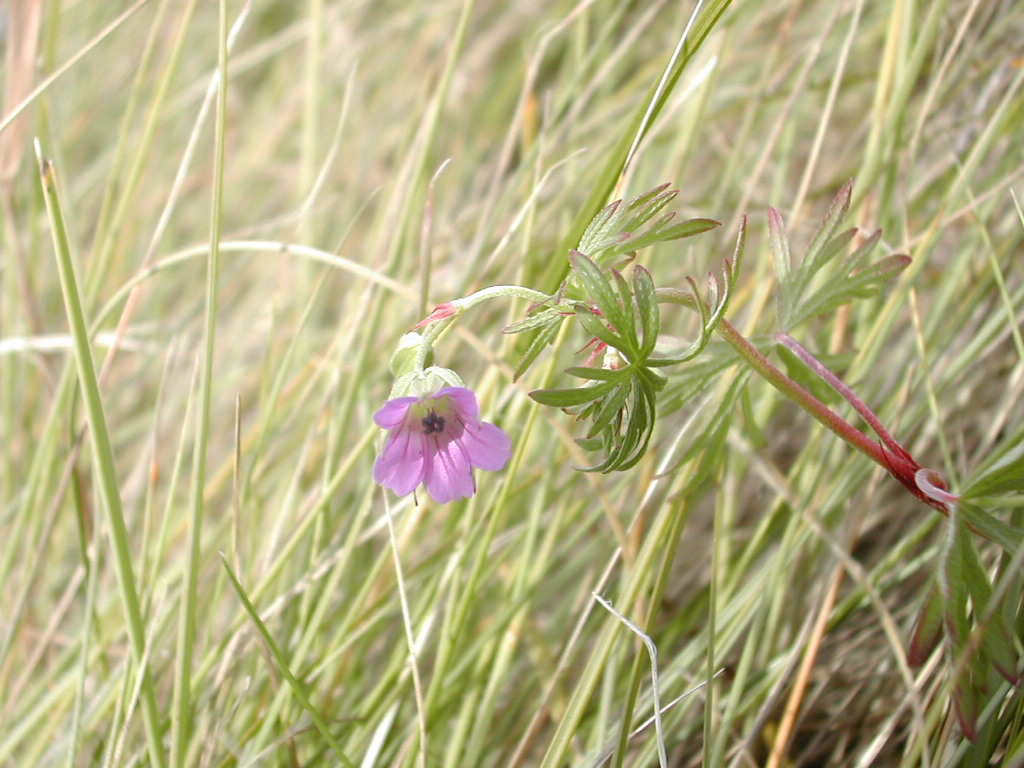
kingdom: Plantae
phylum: Tracheophyta
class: Magnoliopsida
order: Geraniales
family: Geraniaceae
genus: Geranium
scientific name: Geranium columbinum
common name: Long-stalked crane's-bill
